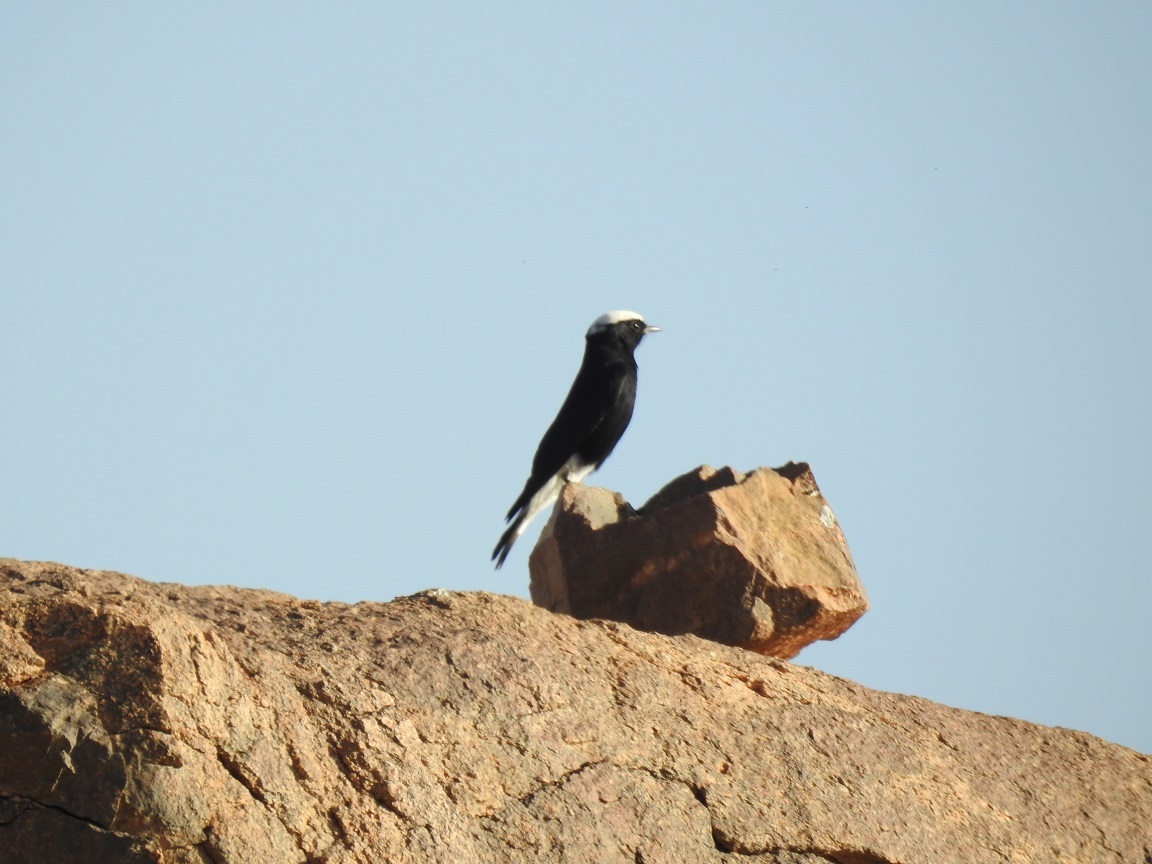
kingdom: Animalia
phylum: Chordata
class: Aves
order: Passeriformes
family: Muscicapidae
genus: Oenanthe
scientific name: Oenanthe leucopyga
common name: White-crowned wheatear
